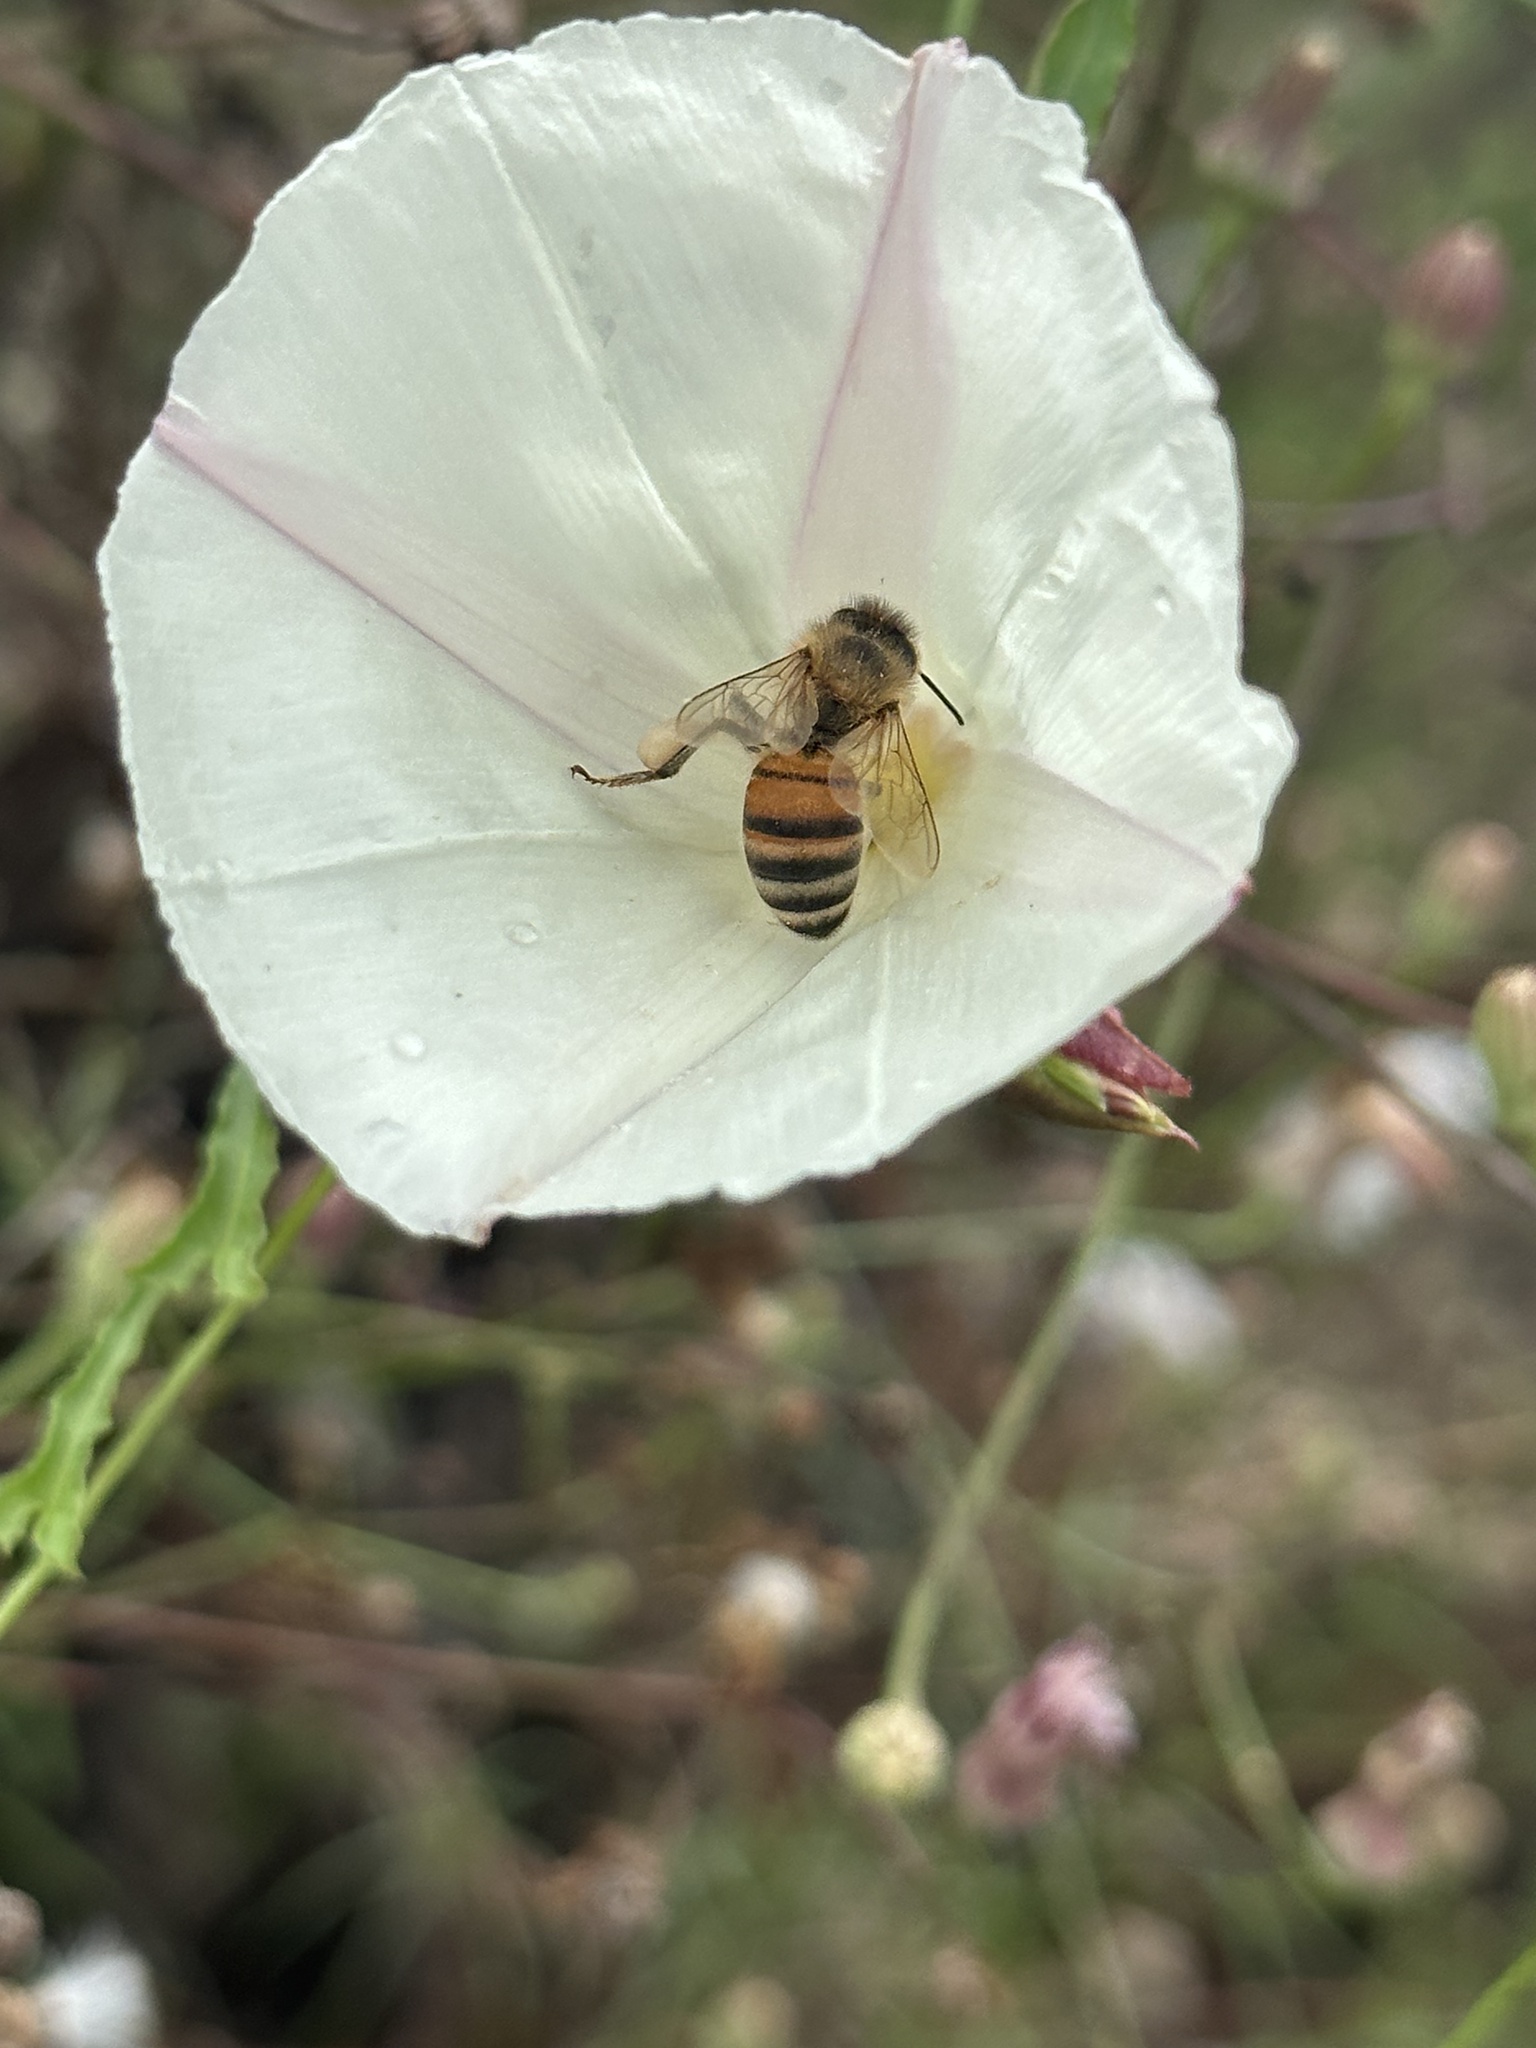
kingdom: Plantae
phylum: Tracheophyta
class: Magnoliopsida
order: Solanales
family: Convolvulaceae
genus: Calystegia
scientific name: Calystegia macrostegia
